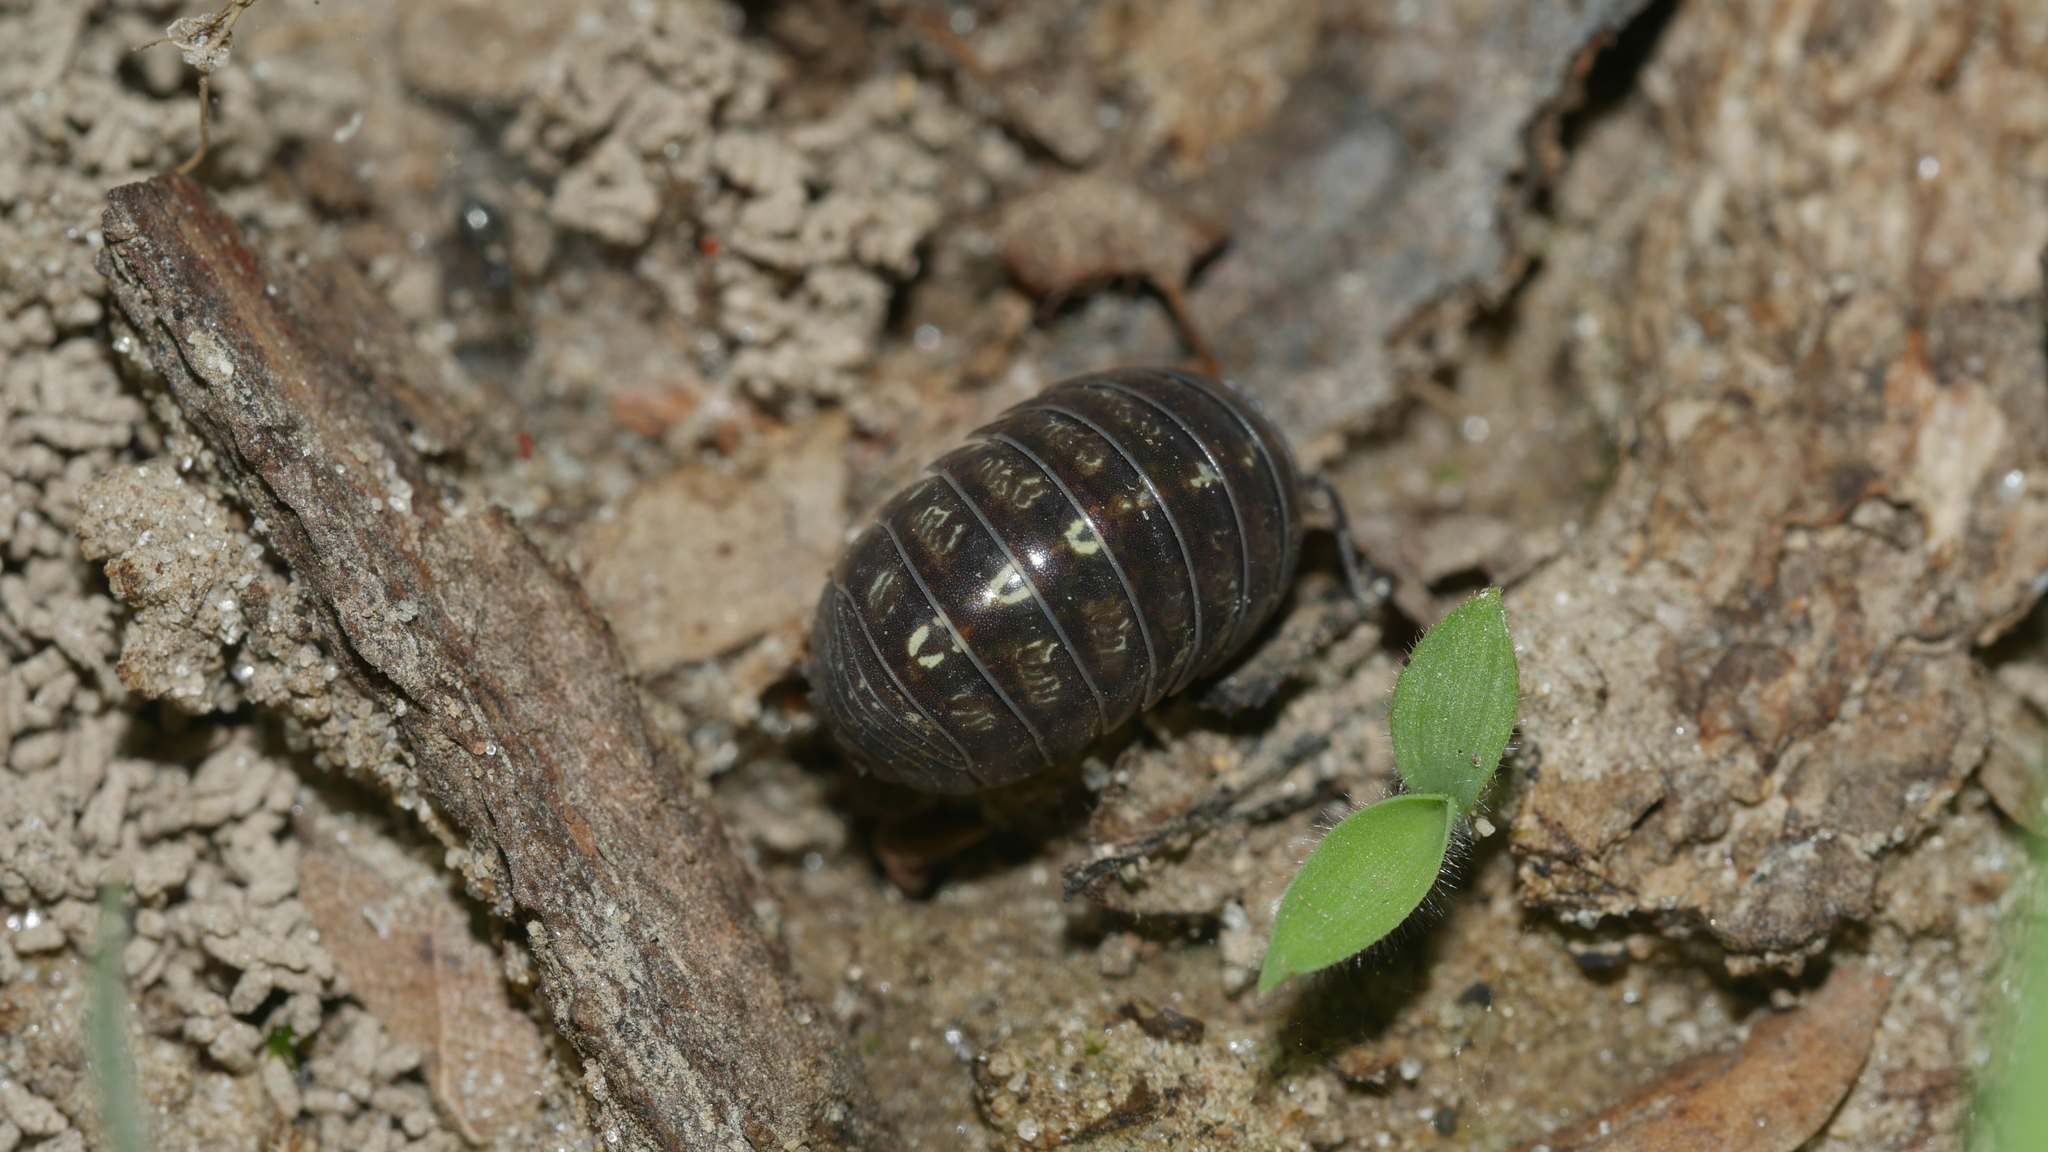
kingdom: Animalia
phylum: Arthropoda
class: Malacostraca
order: Isopoda
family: Armadillidiidae
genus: Armadillidium
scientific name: Armadillidium vulgare
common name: Common pill woodlouse
